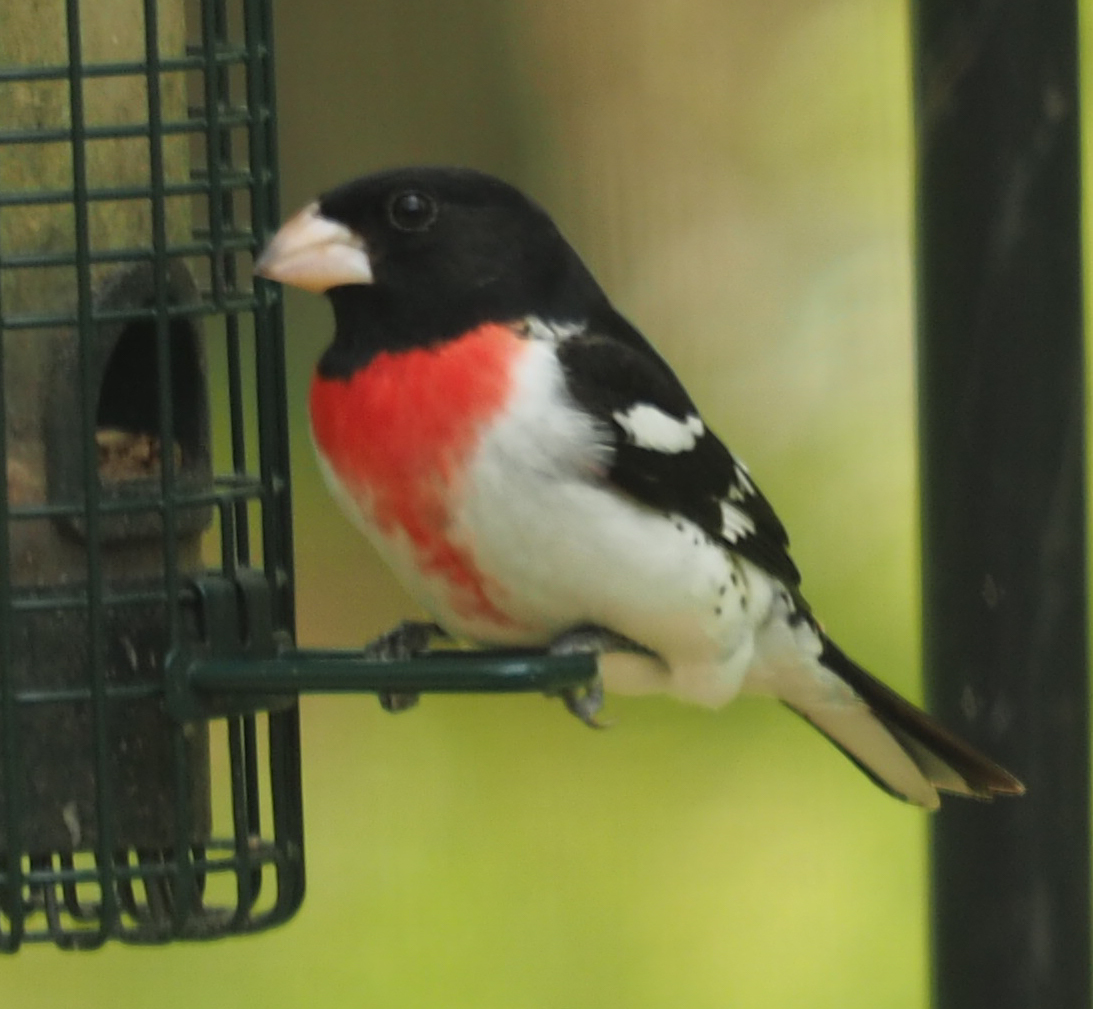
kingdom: Animalia
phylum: Chordata
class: Aves
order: Passeriformes
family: Cardinalidae
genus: Pheucticus
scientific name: Pheucticus ludovicianus
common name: Rose-breasted grosbeak
